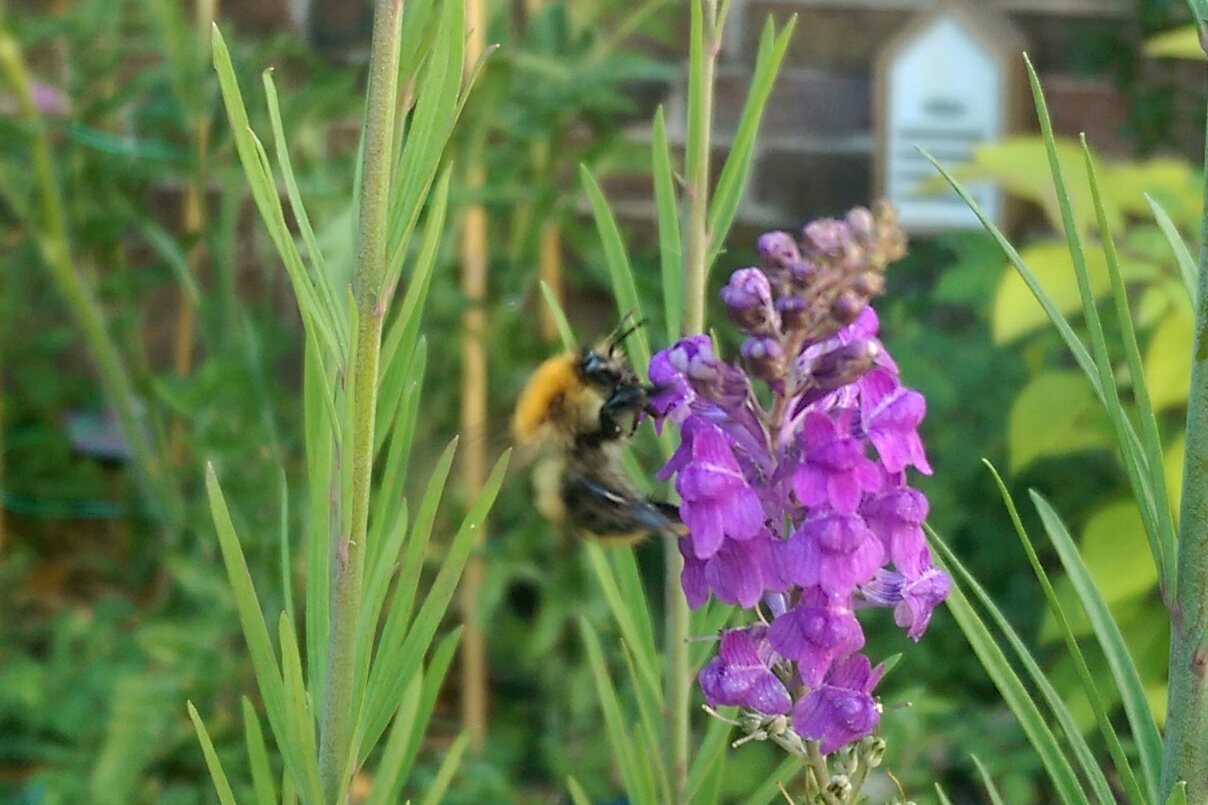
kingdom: Animalia
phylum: Arthropoda
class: Insecta
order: Hymenoptera
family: Apidae
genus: Bombus
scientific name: Bombus pascuorum
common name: Common carder bee
